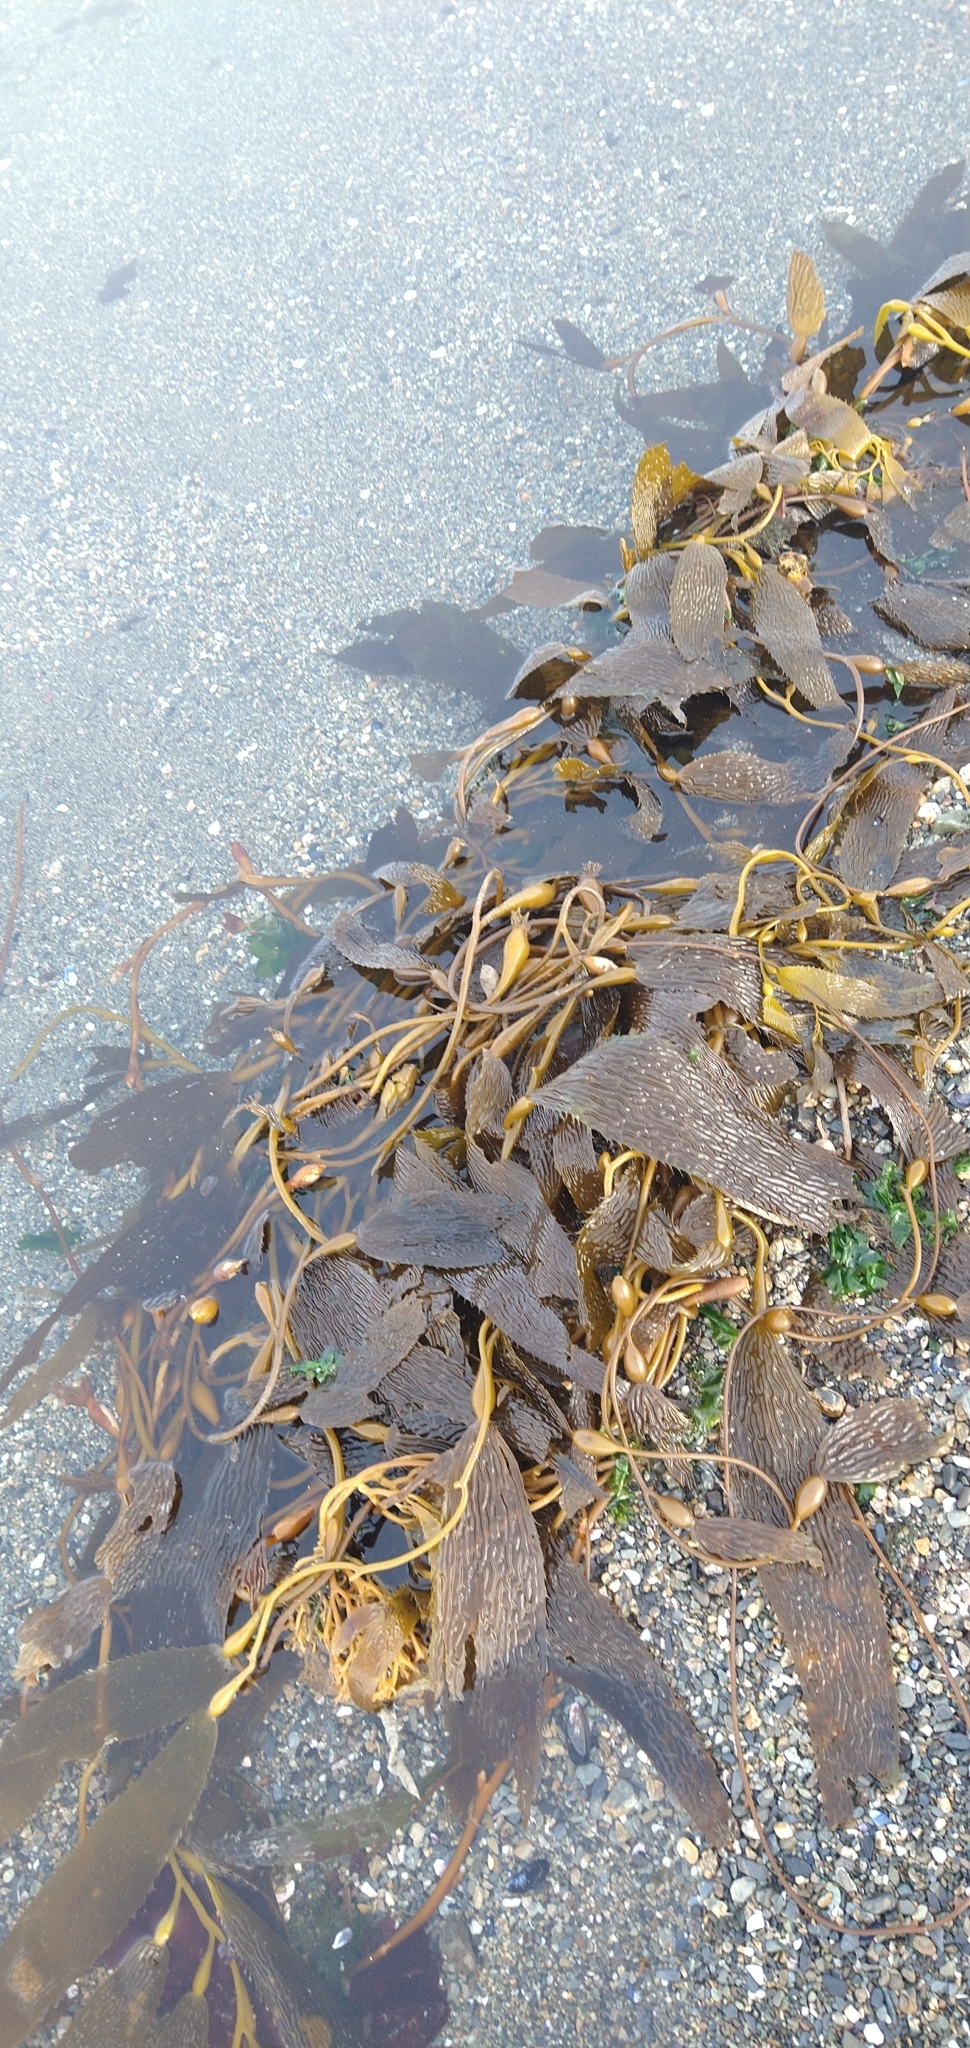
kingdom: Chromista
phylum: Ochrophyta
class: Phaeophyceae
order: Laminariales
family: Laminariaceae
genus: Macrocystis
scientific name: Macrocystis pyrifera
